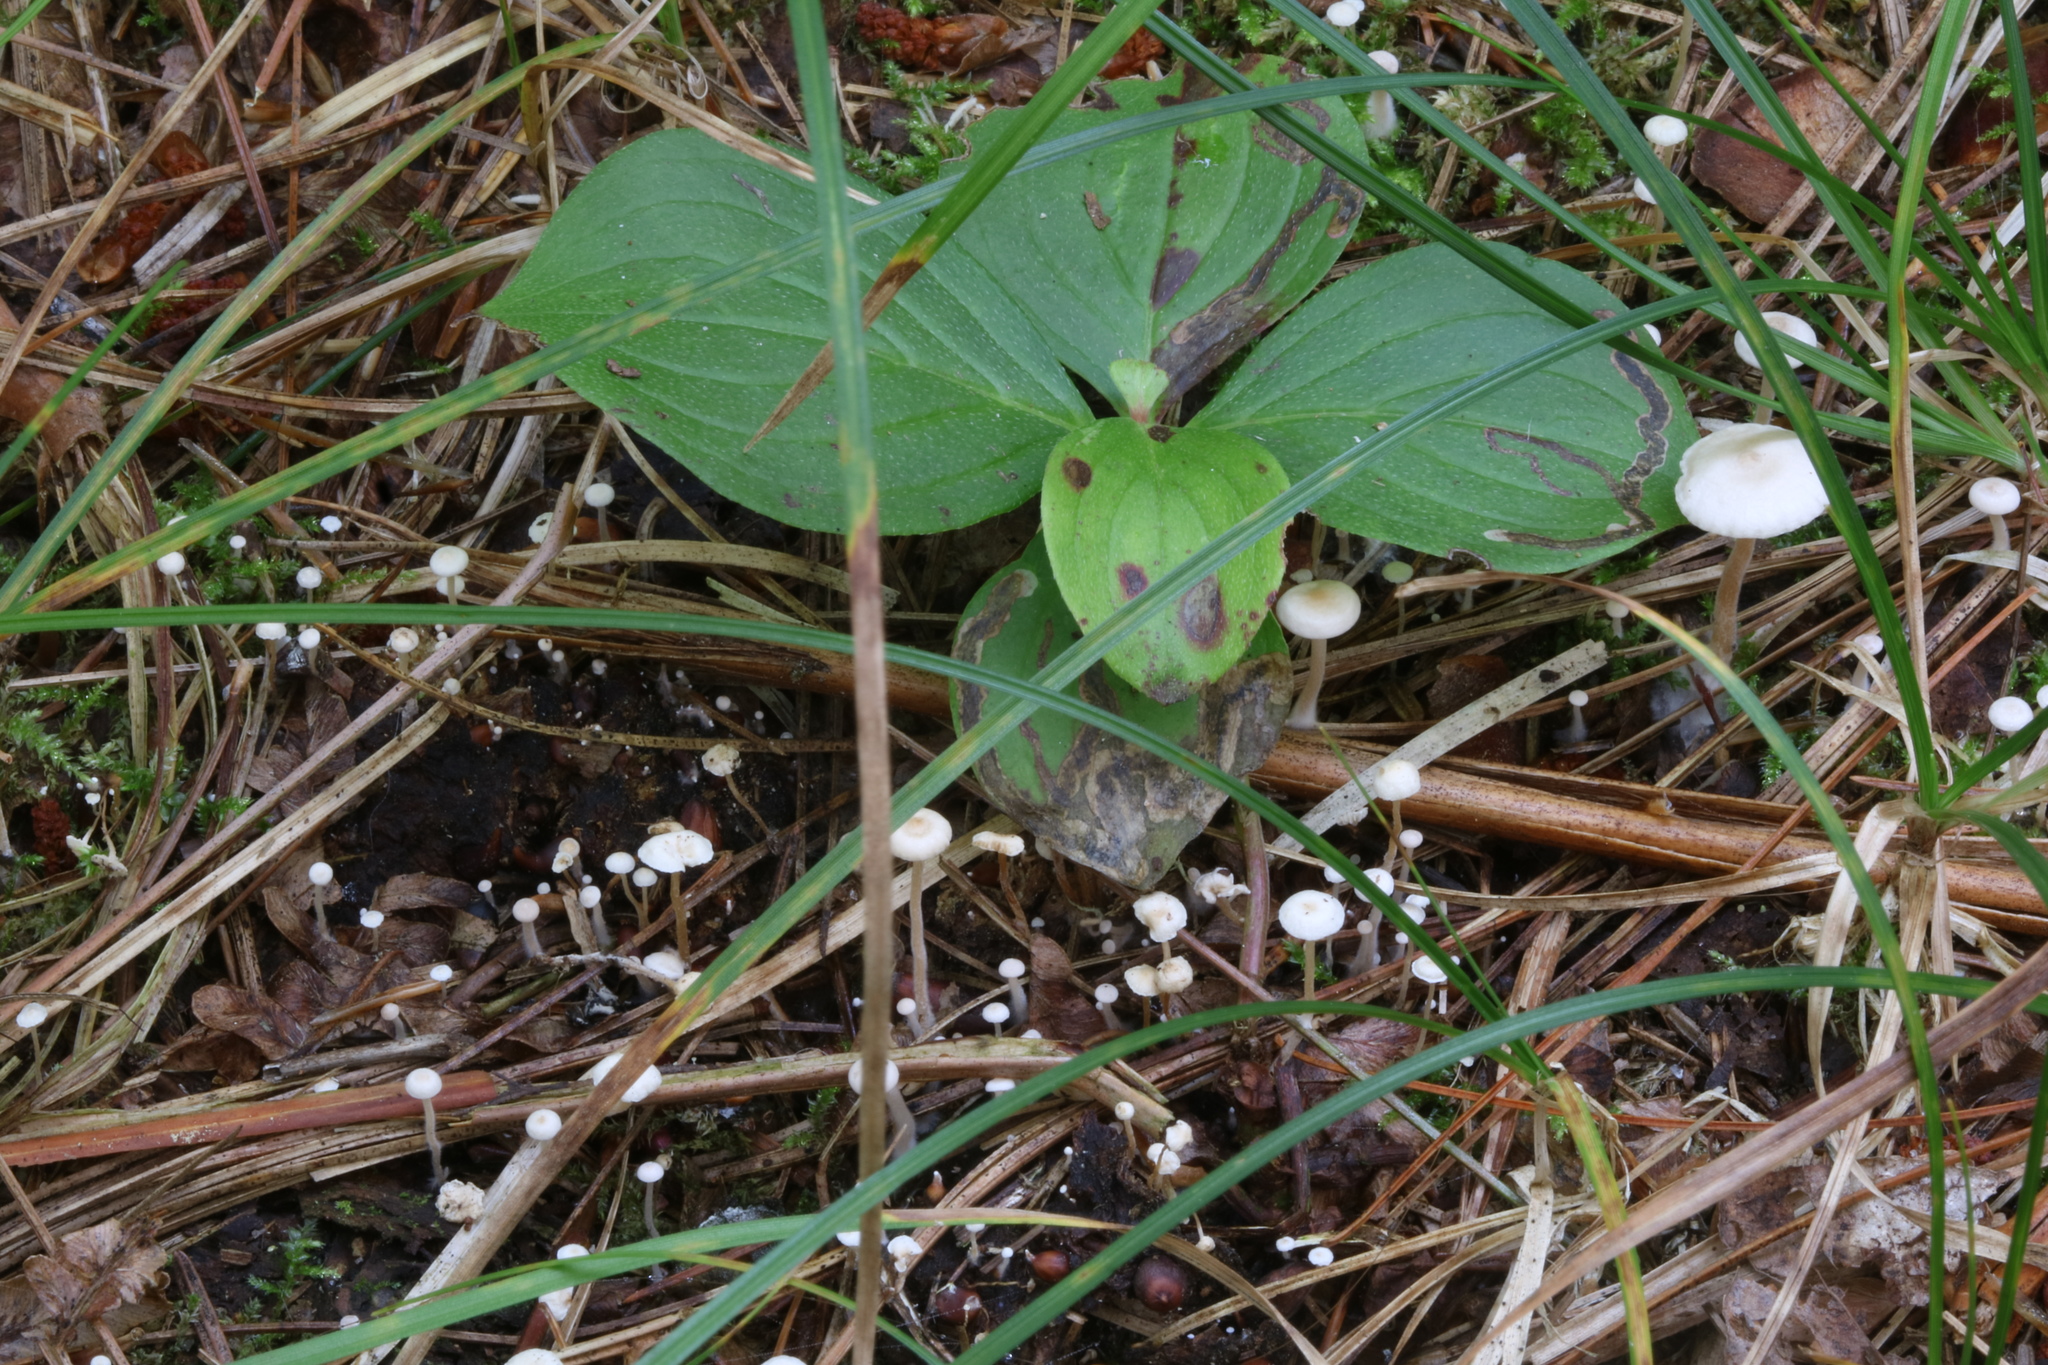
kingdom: Fungi
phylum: Basidiomycota
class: Agaricomycetes
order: Agaricales
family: Tricholomataceae
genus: Collybia
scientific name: Collybia tuberosa
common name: Lentil shanklet
